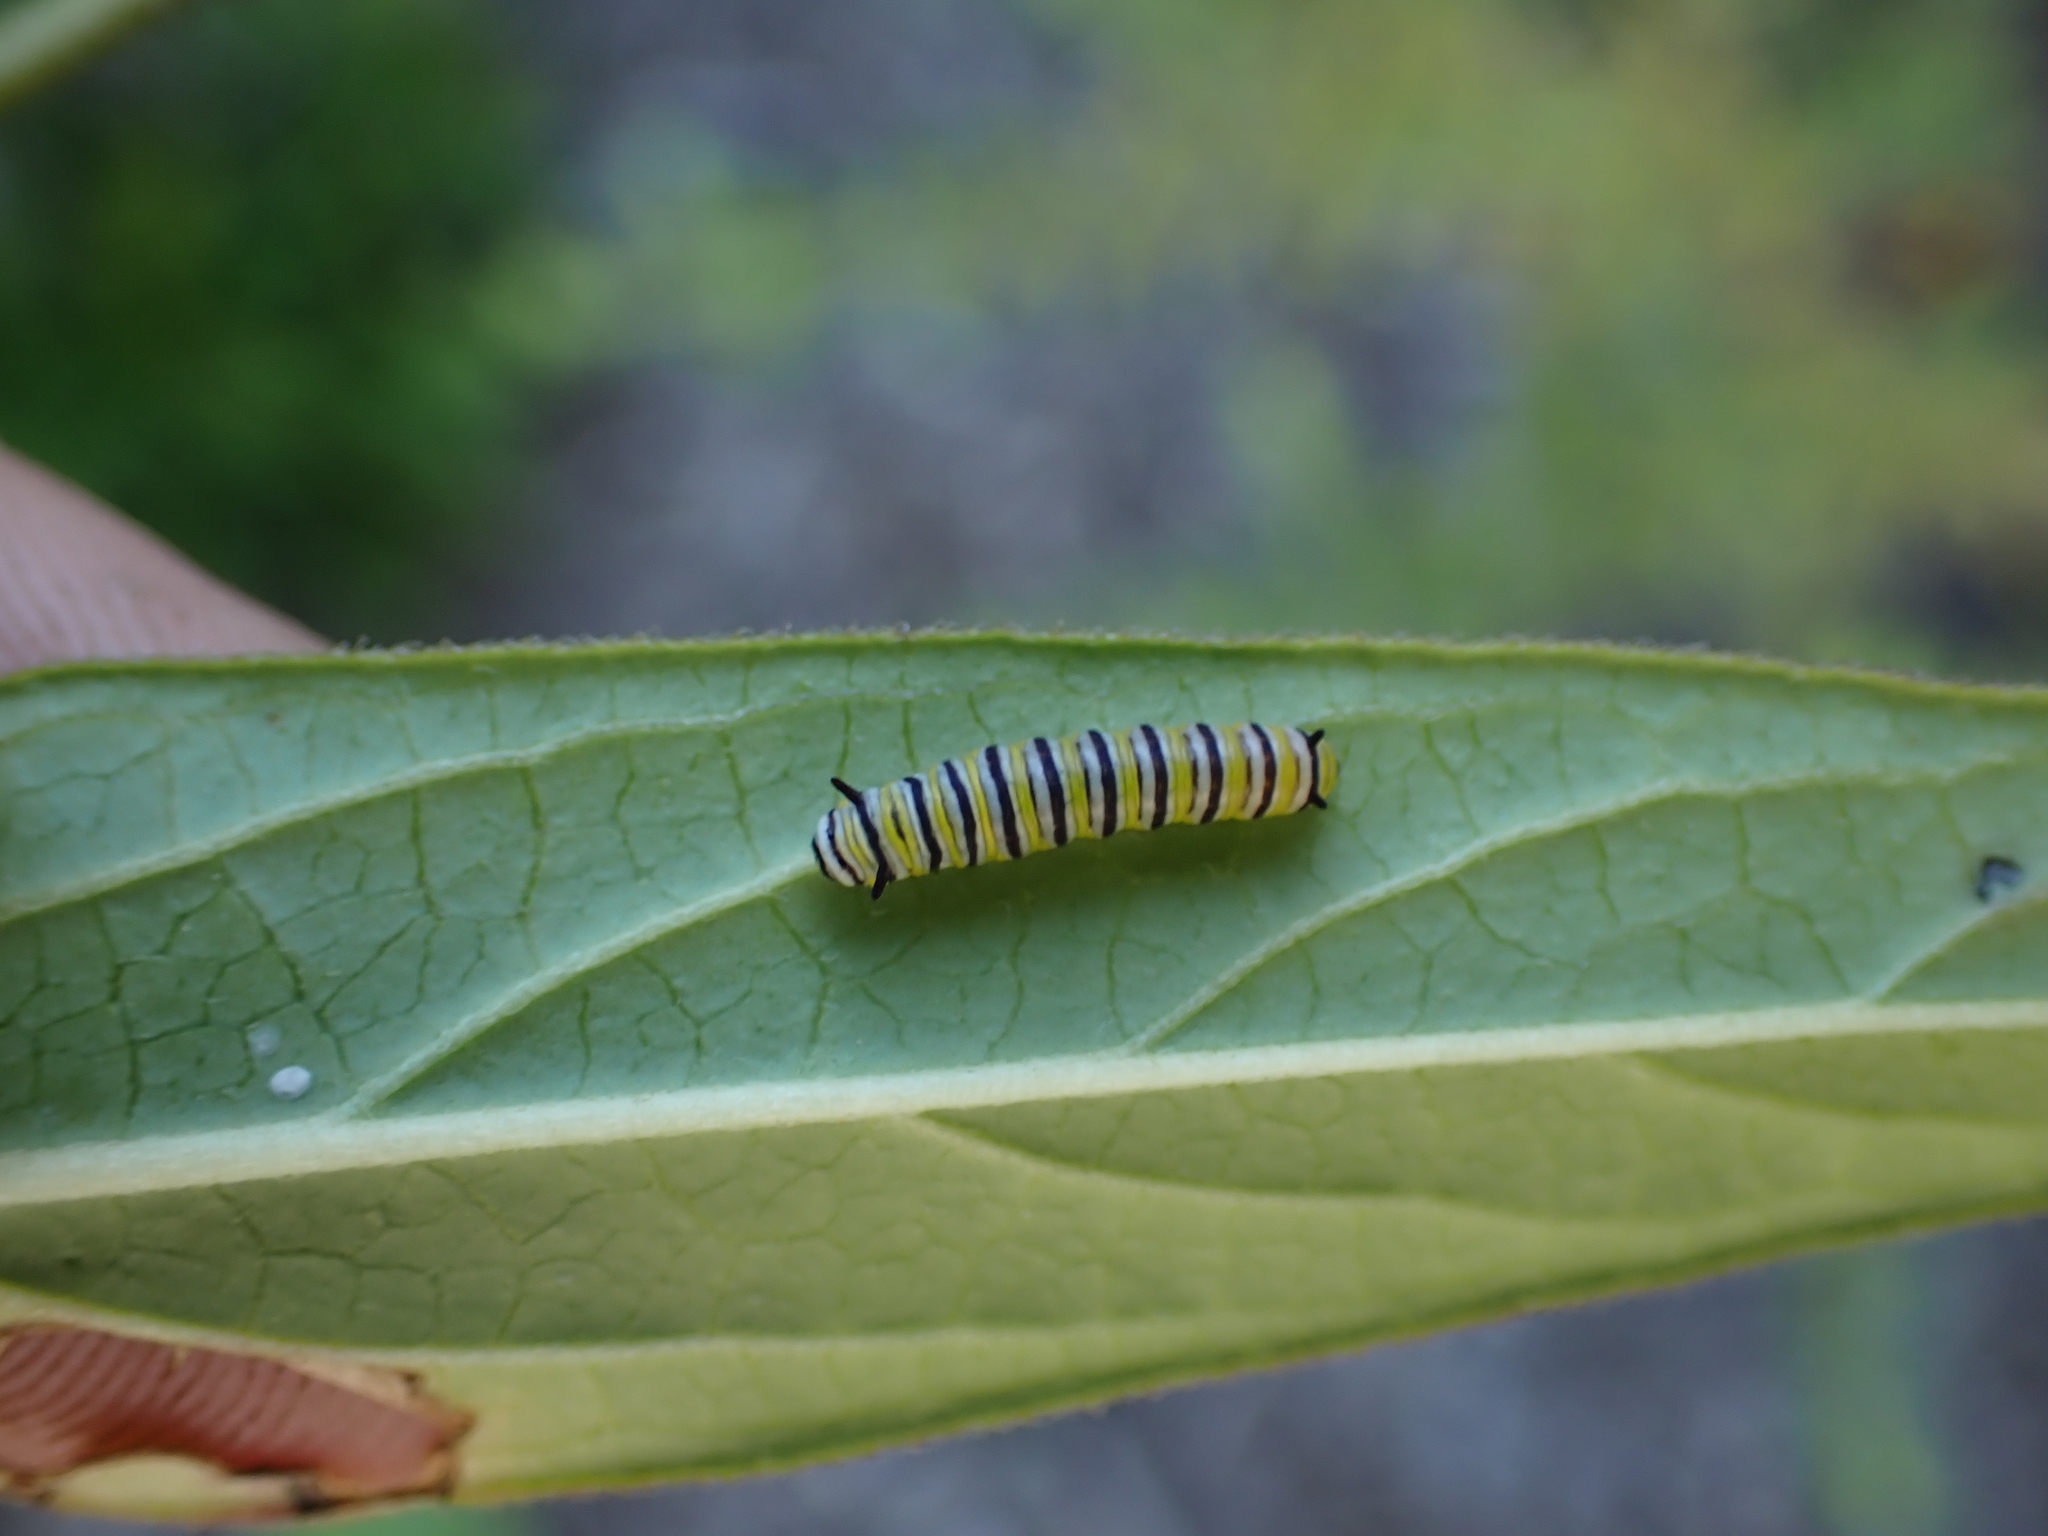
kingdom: Animalia
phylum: Arthropoda
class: Insecta
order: Lepidoptera
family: Nymphalidae
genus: Danaus
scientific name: Danaus plexippus
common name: Monarch
